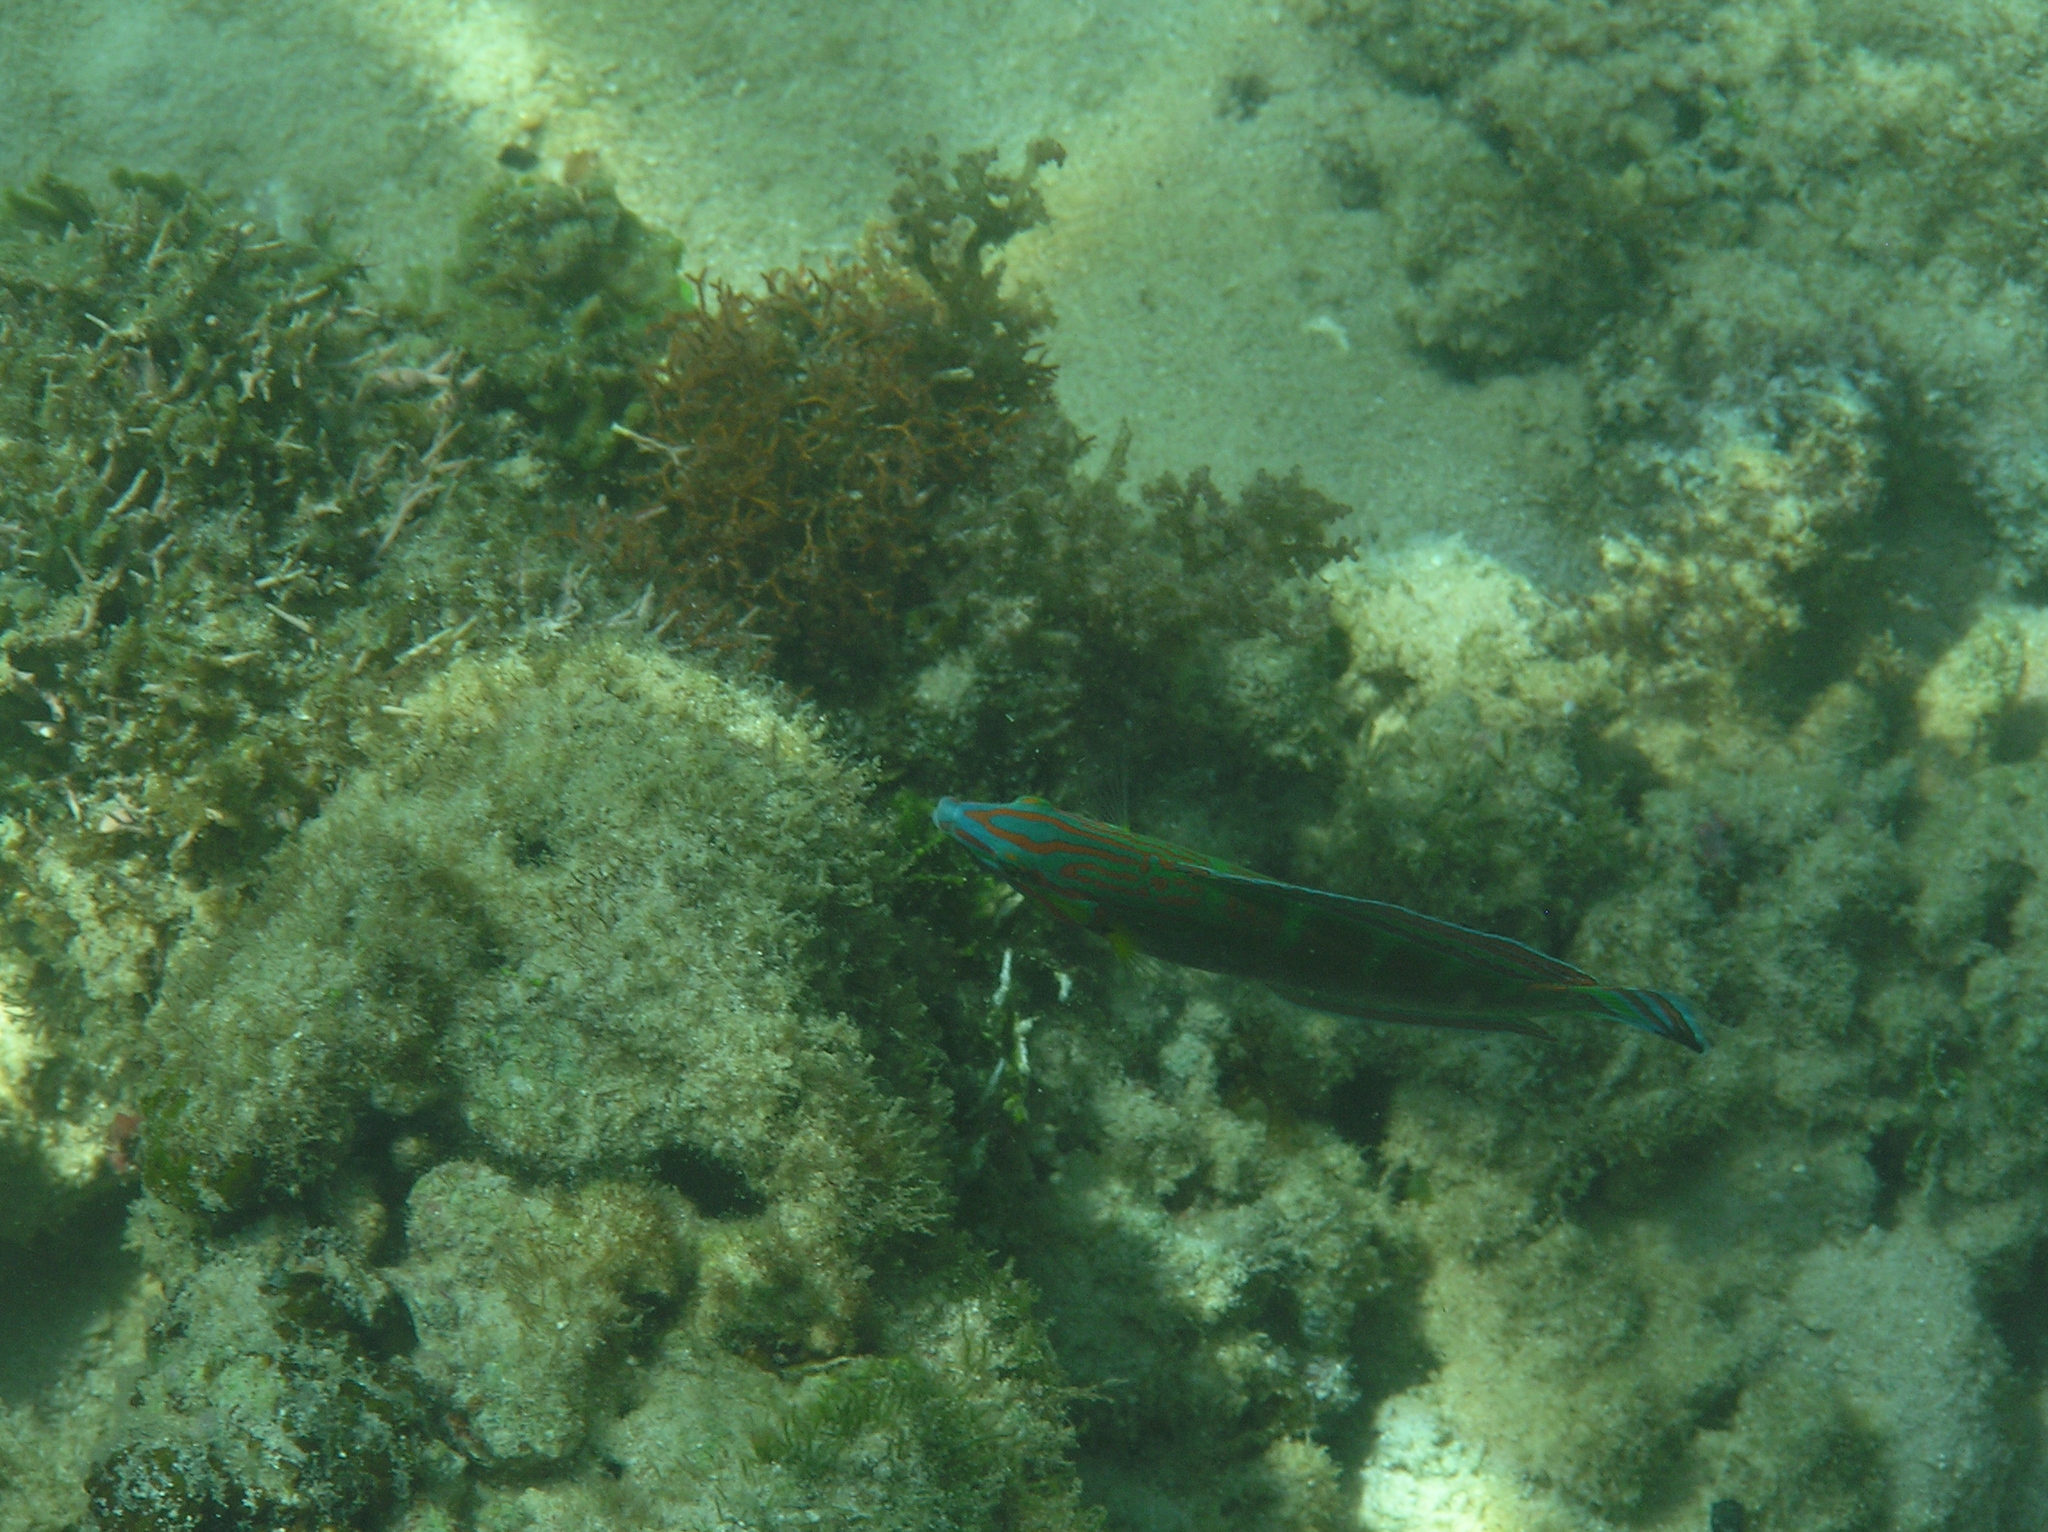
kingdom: Animalia
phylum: Chordata
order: Perciformes
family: Labridae
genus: Halichoeres
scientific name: Halichoeres melanurus
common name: Hoeven's wrasse
